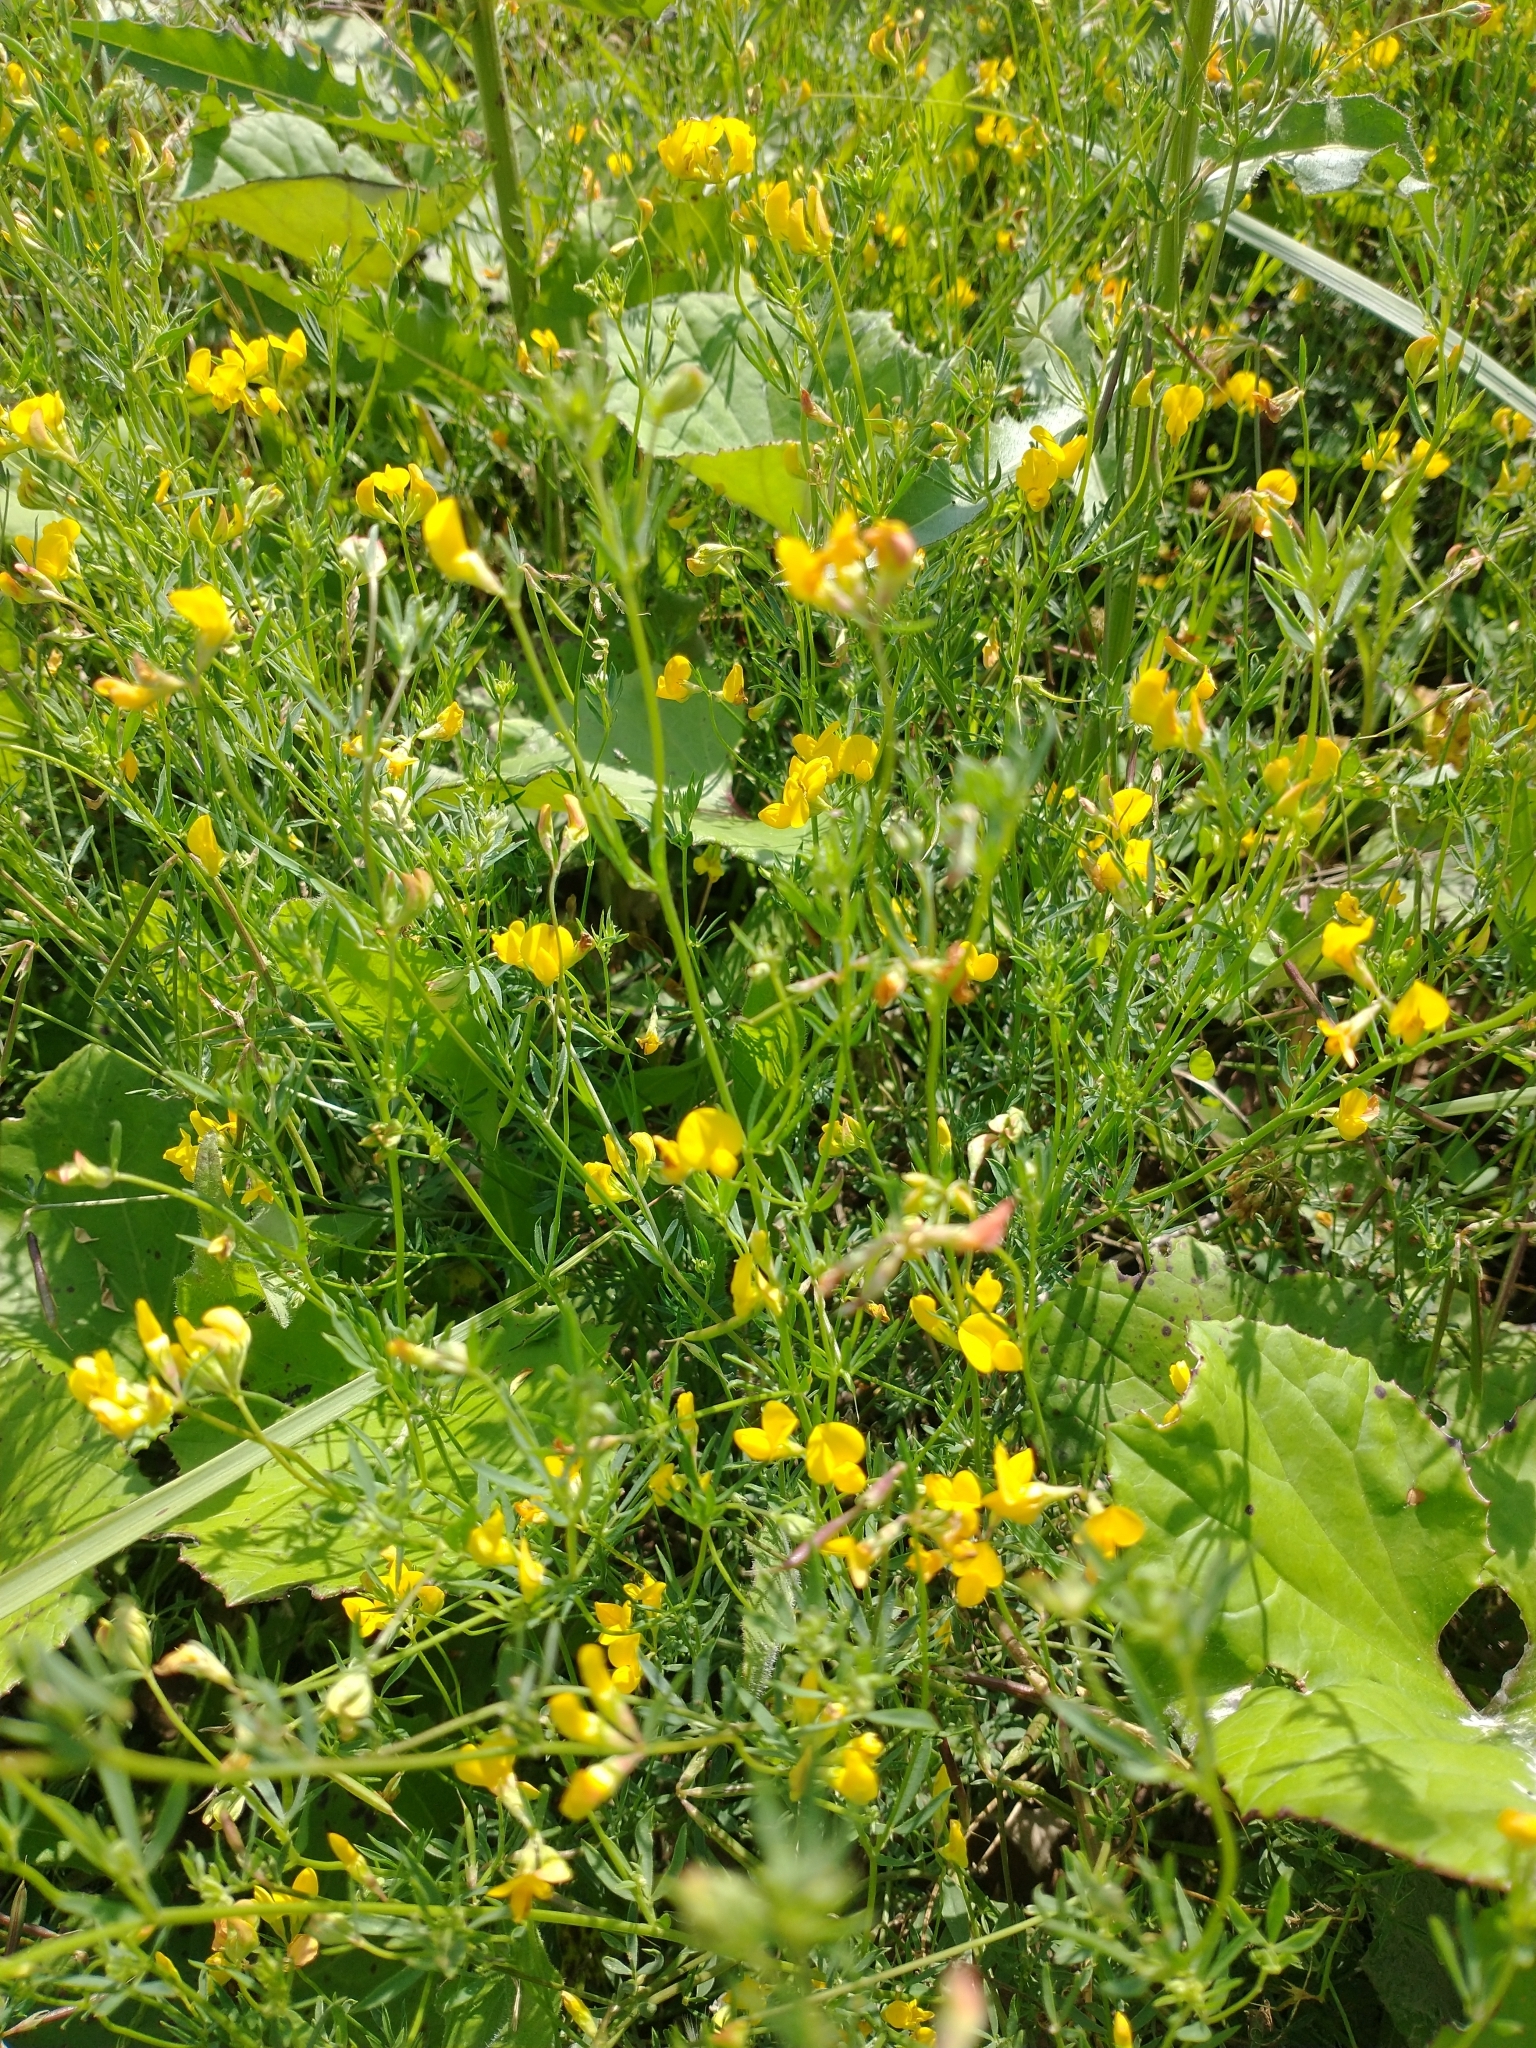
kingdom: Plantae
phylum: Tracheophyta
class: Magnoliopsida
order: Fabales
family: Fabaceae
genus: Lotus
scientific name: Lotus tenuis
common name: Narrow-leaved bird's-foot-trefoil
